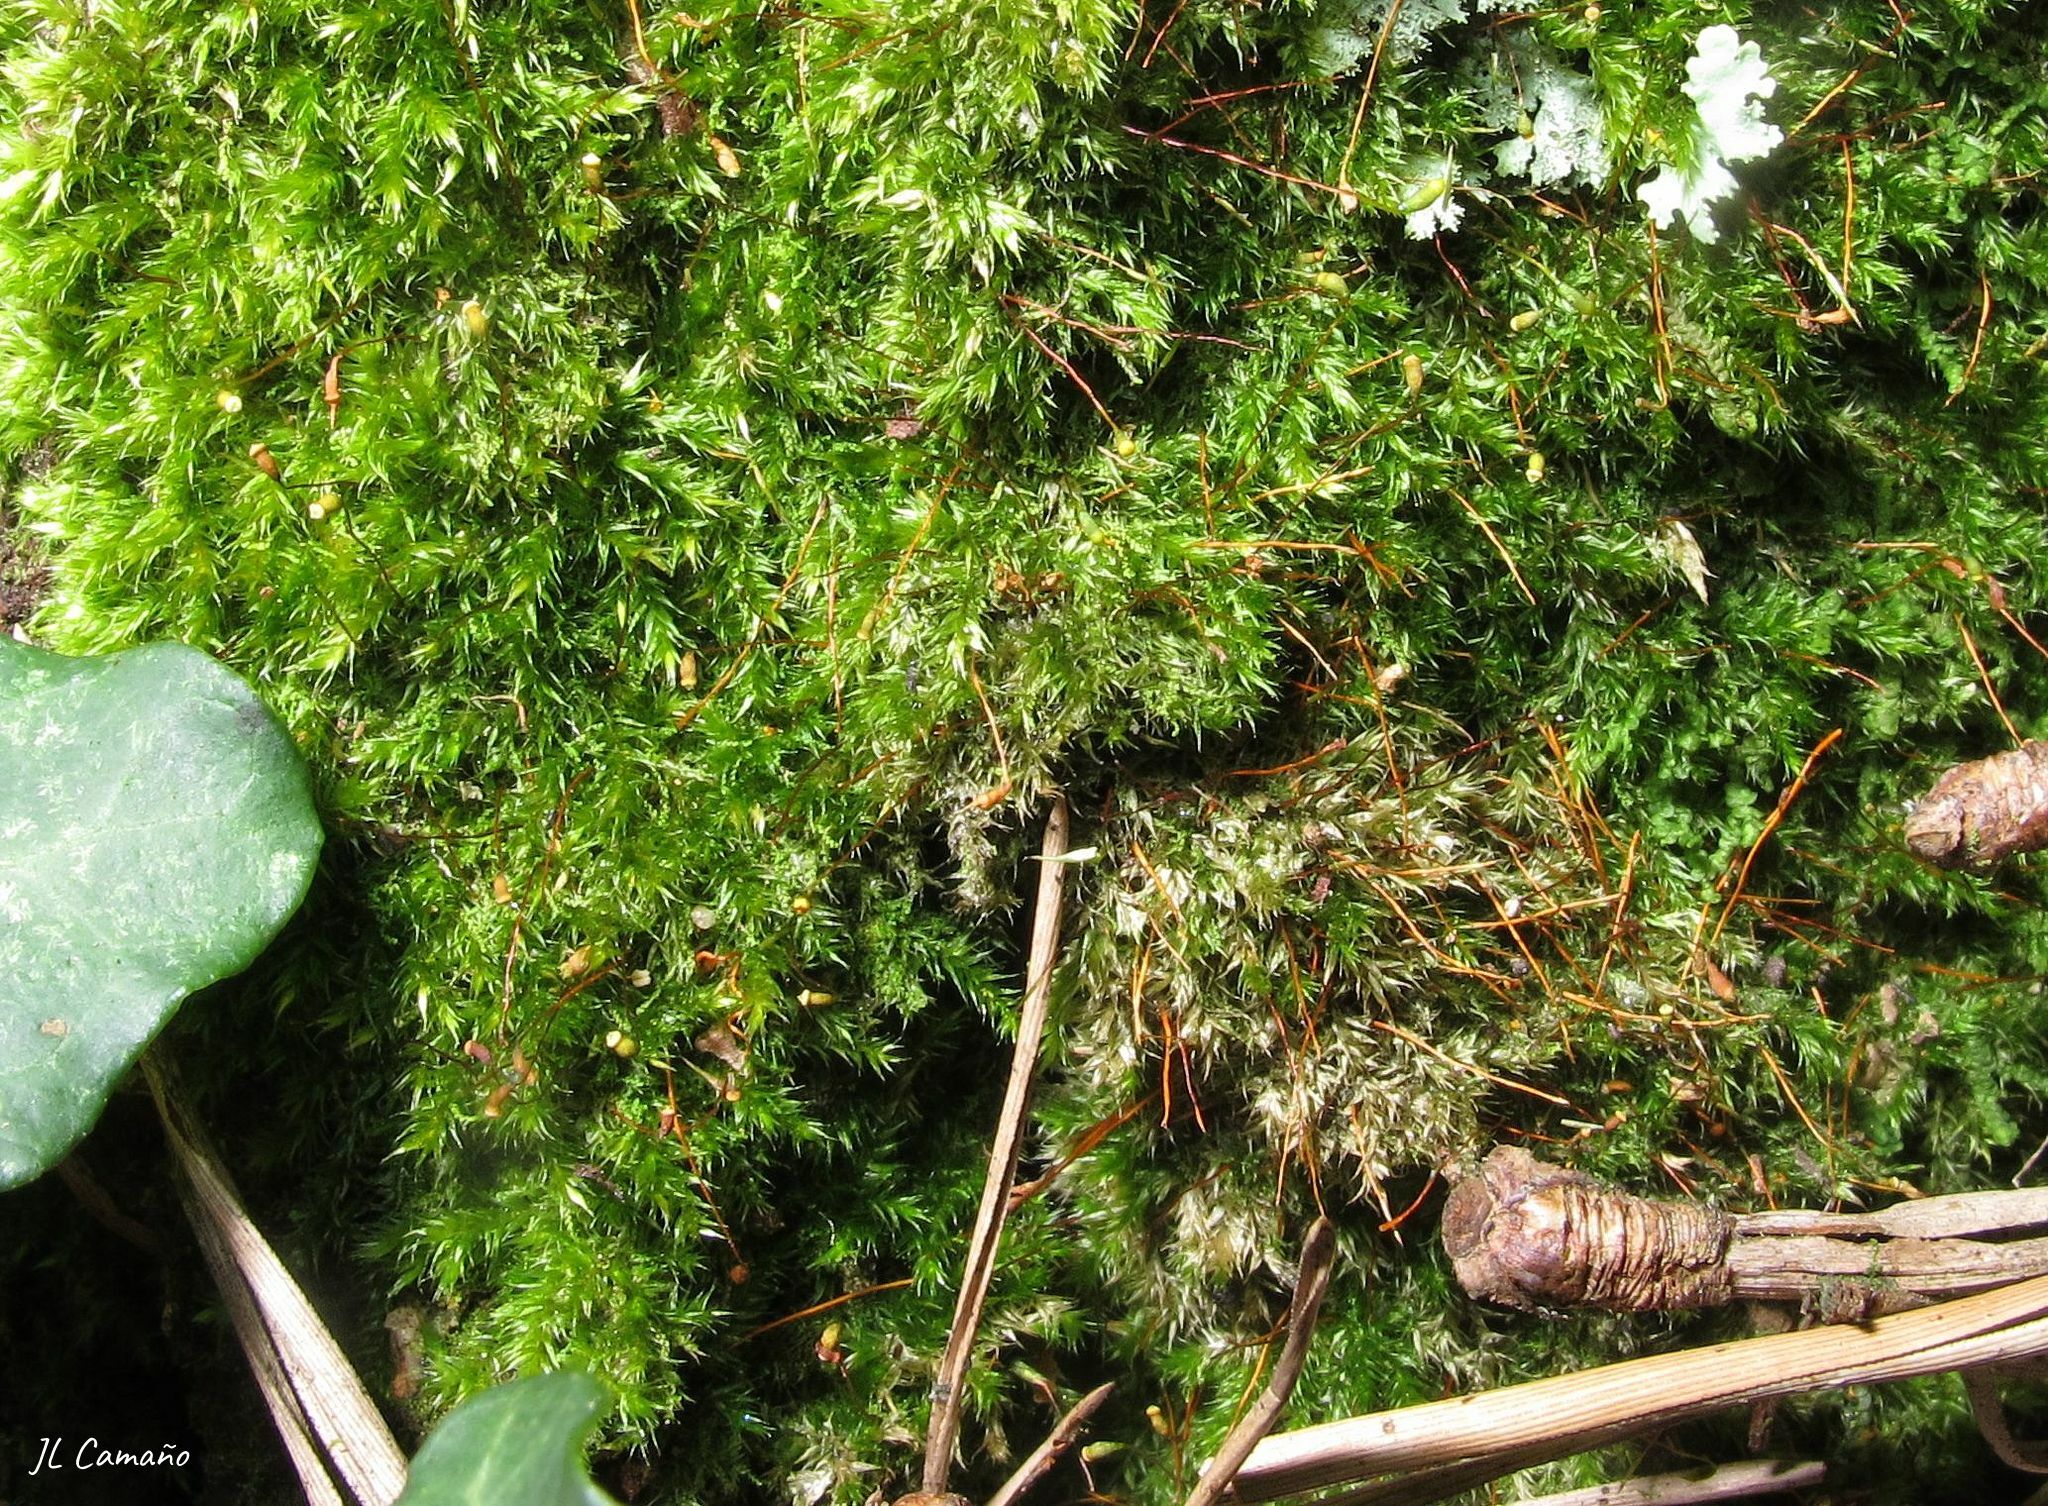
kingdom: Plantae
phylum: Bryophyta
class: Bryopsida
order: Hypnales
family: Sematophyllaceae
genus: Sematophyllum
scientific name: Sematophyllum substrumulosum
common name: Bark signal-moss
